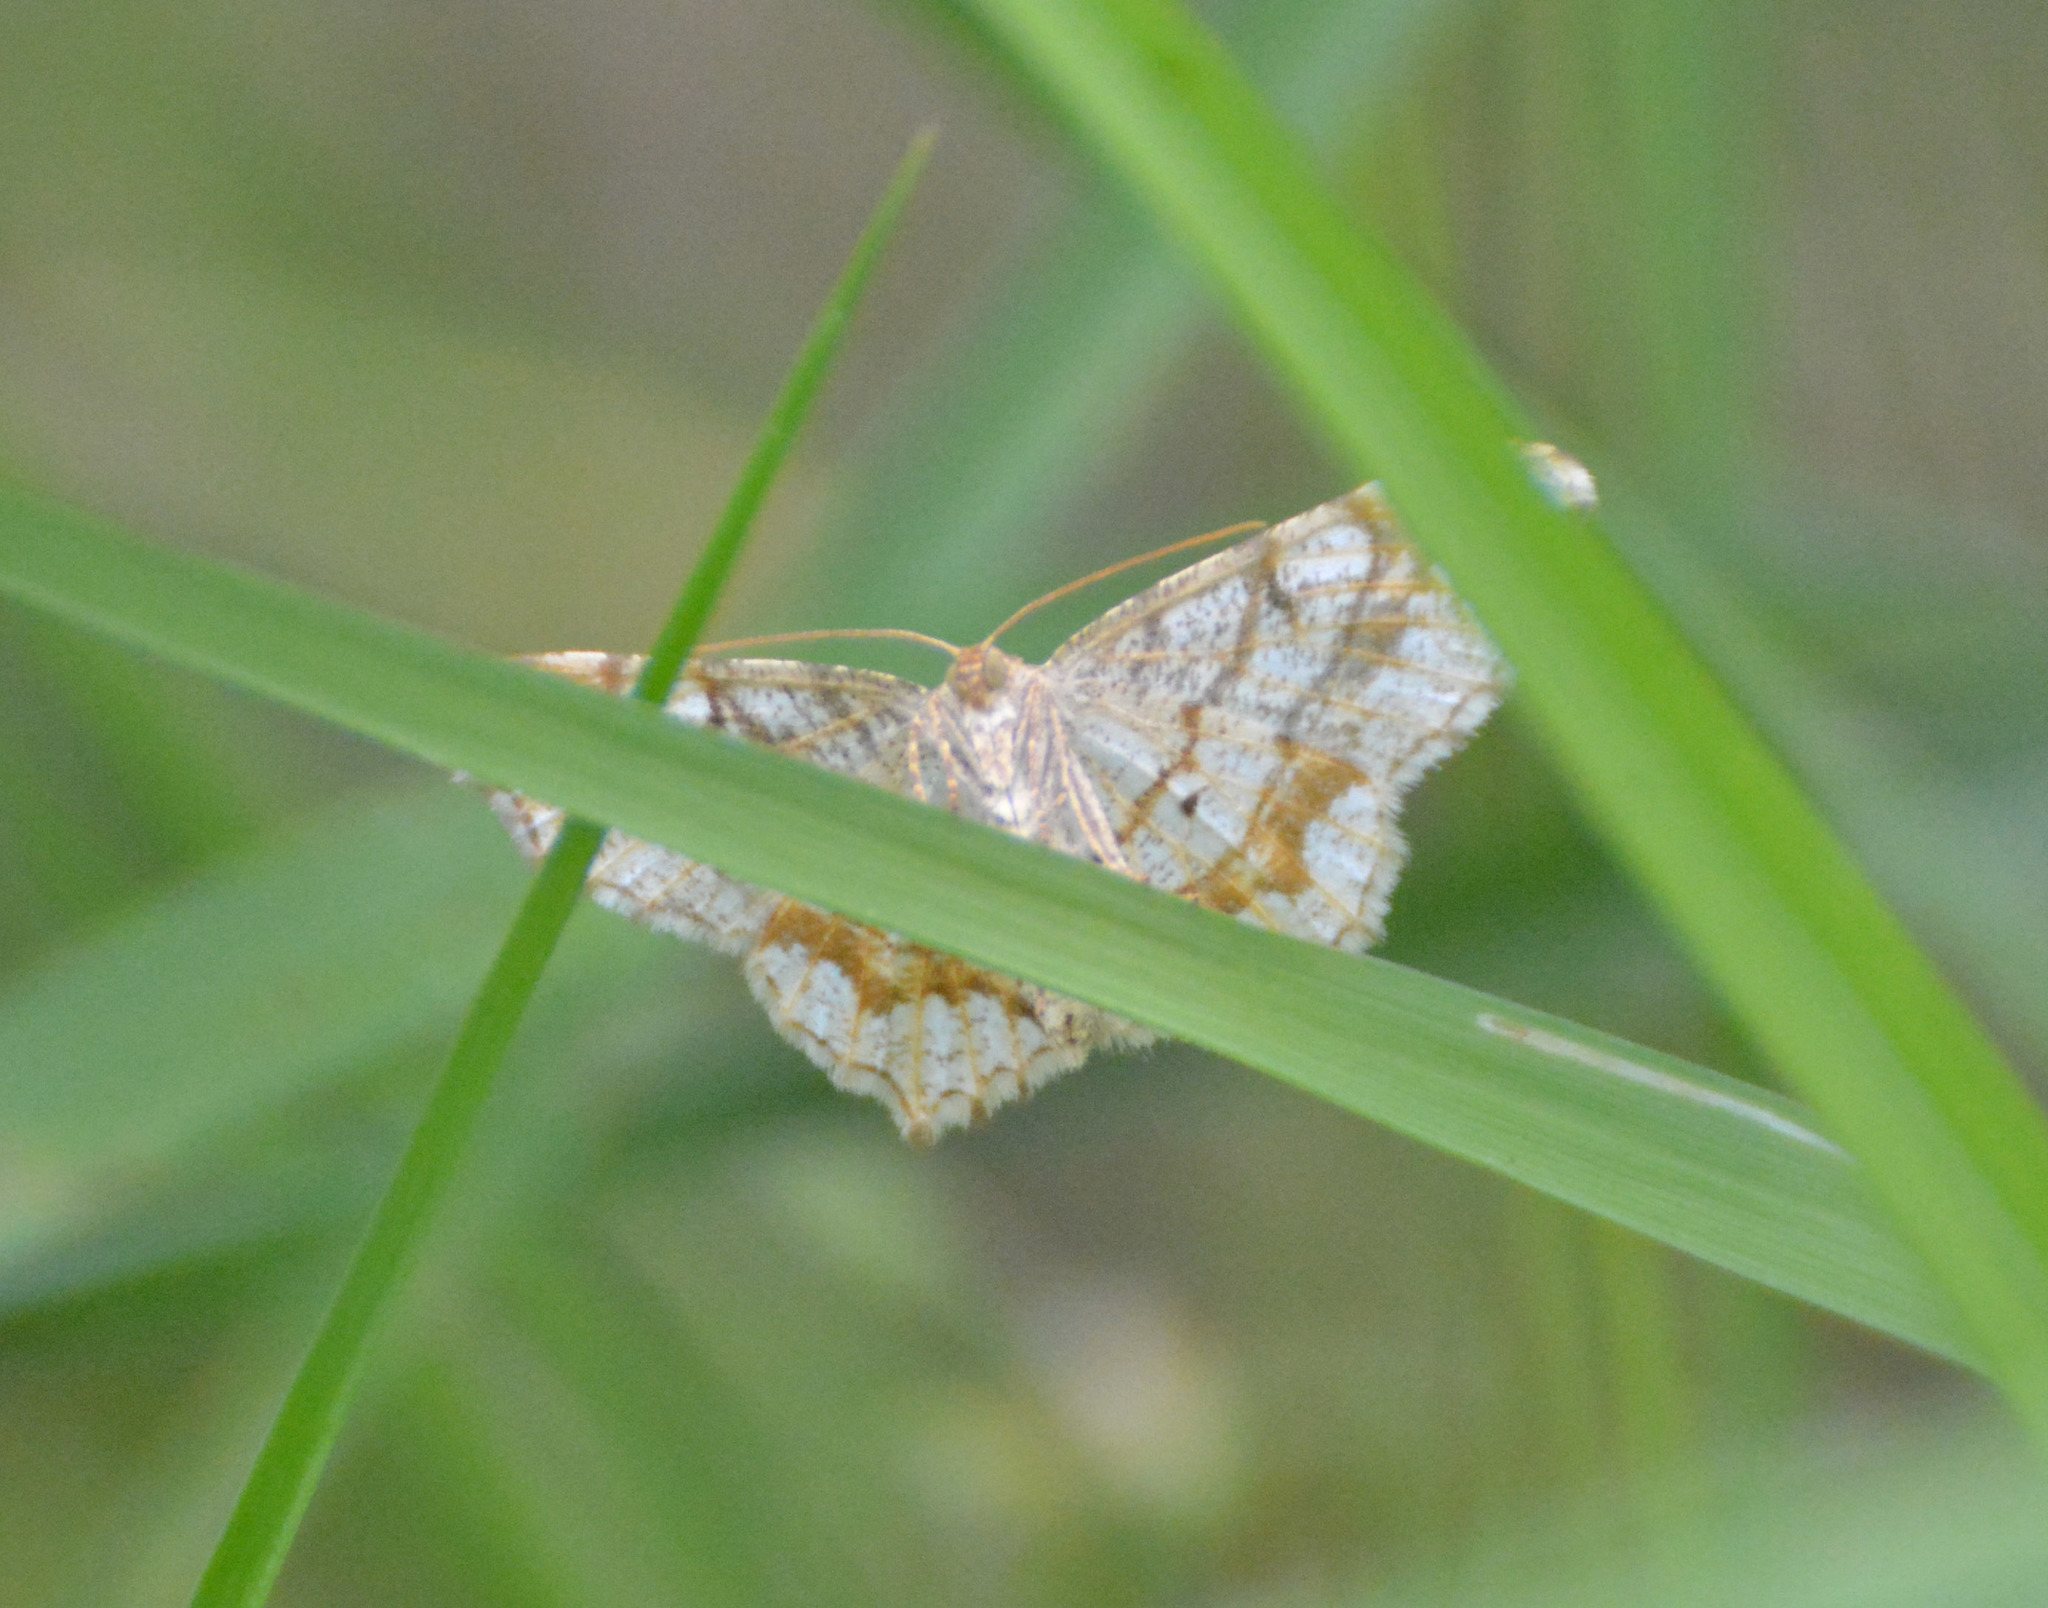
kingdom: Animalia
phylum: Arthropoda
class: Insecta
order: Lepidoptera
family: Geometridae
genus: Macaria
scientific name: Macaria notata
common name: Peacock moth
